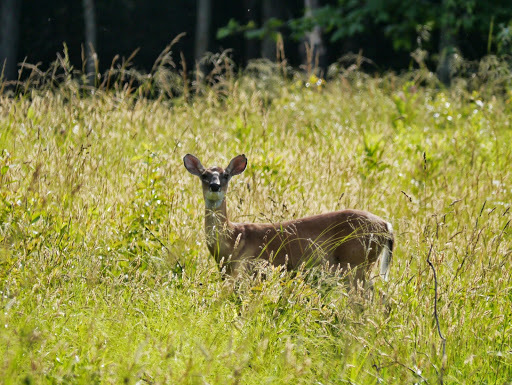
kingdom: Animalia
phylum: Chordata
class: Mammalia
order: Artiodactyla
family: Cervidae
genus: Odocoileus
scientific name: Odocoileus virginianus
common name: White-tailed deer
